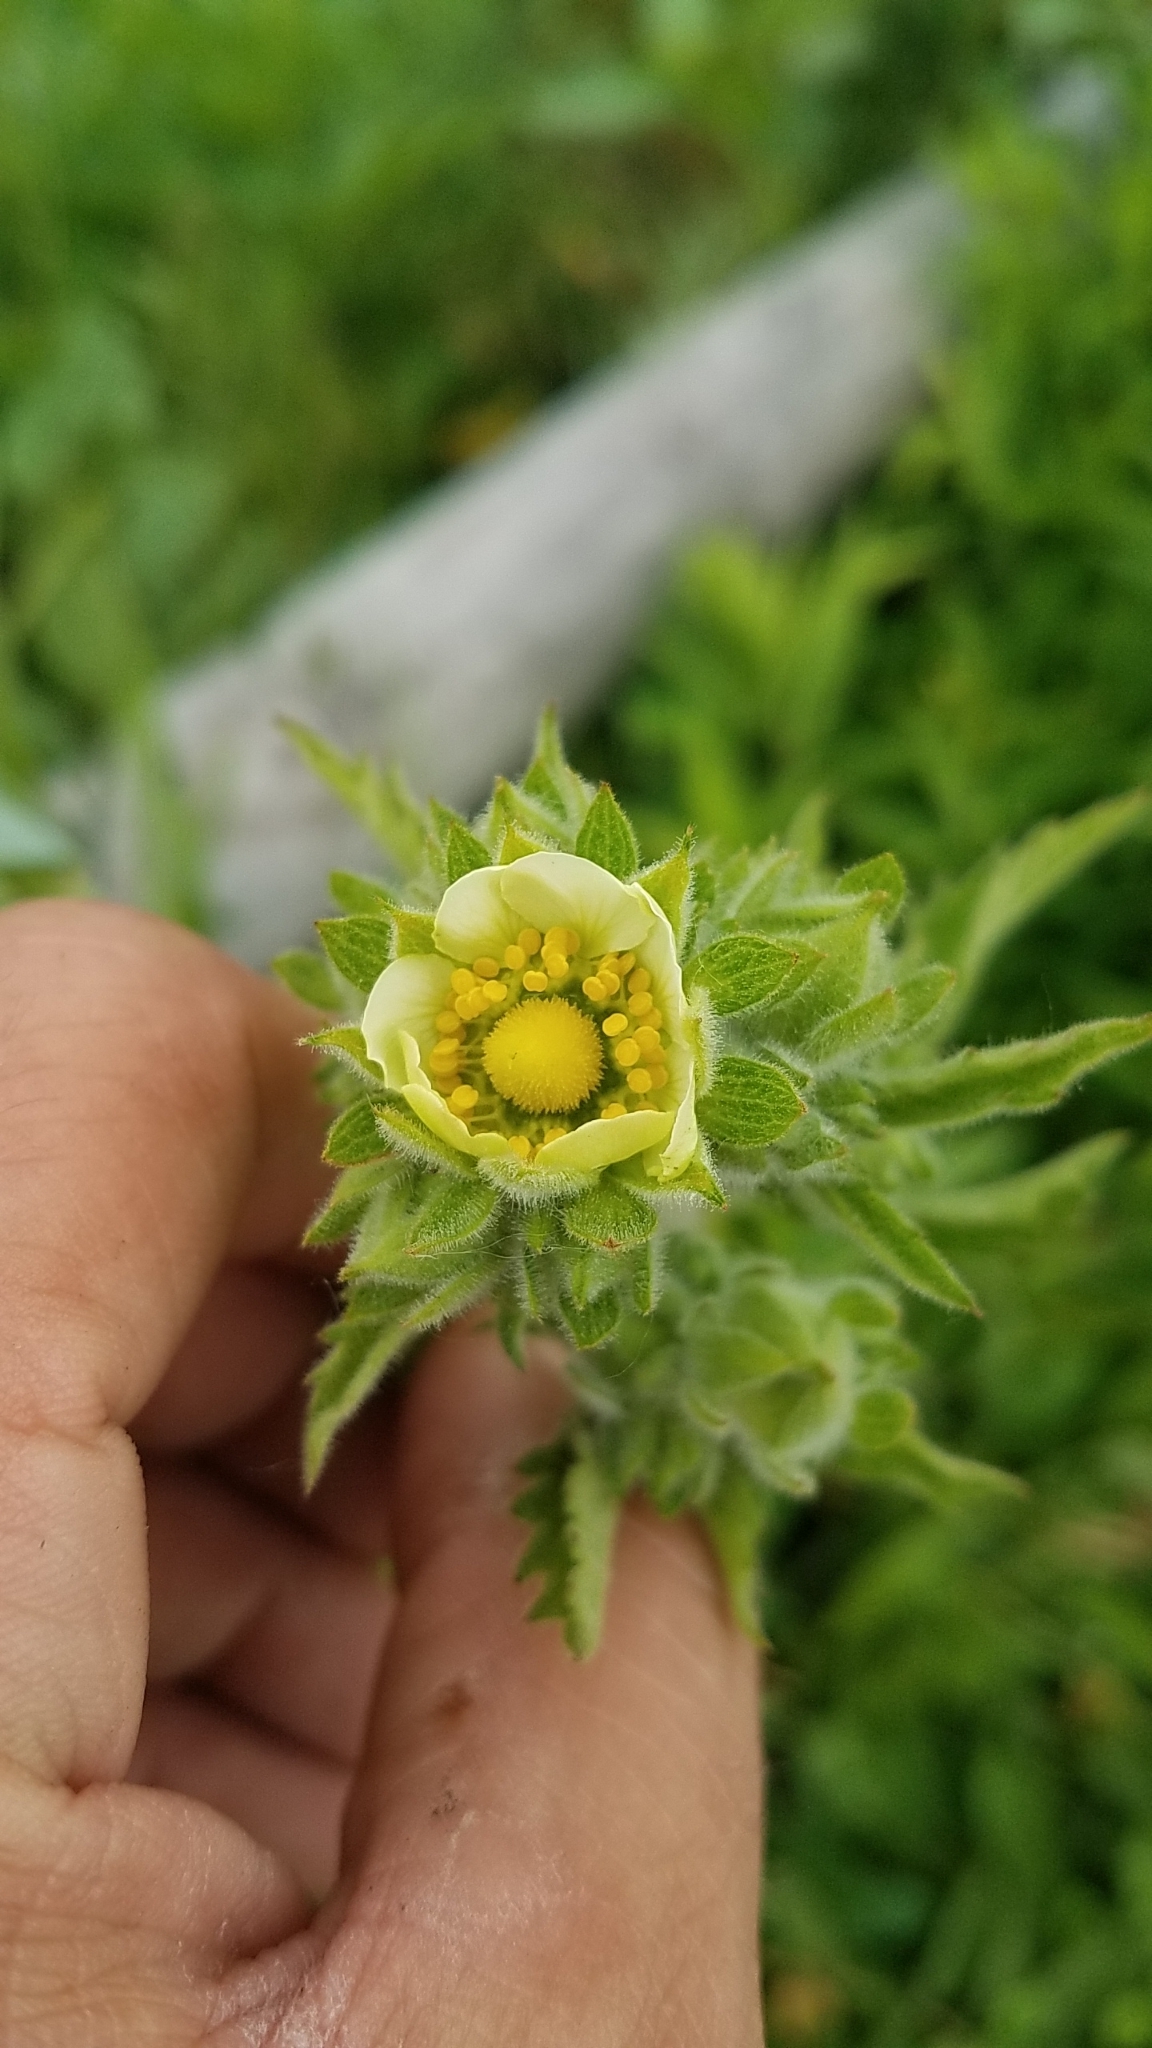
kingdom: Plantae
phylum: Tracheophyta
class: Magnoliopsida
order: Rosales
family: Rosaceae
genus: Drymocallis
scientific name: Drymocallis arguta
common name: Tall cinquefoil
